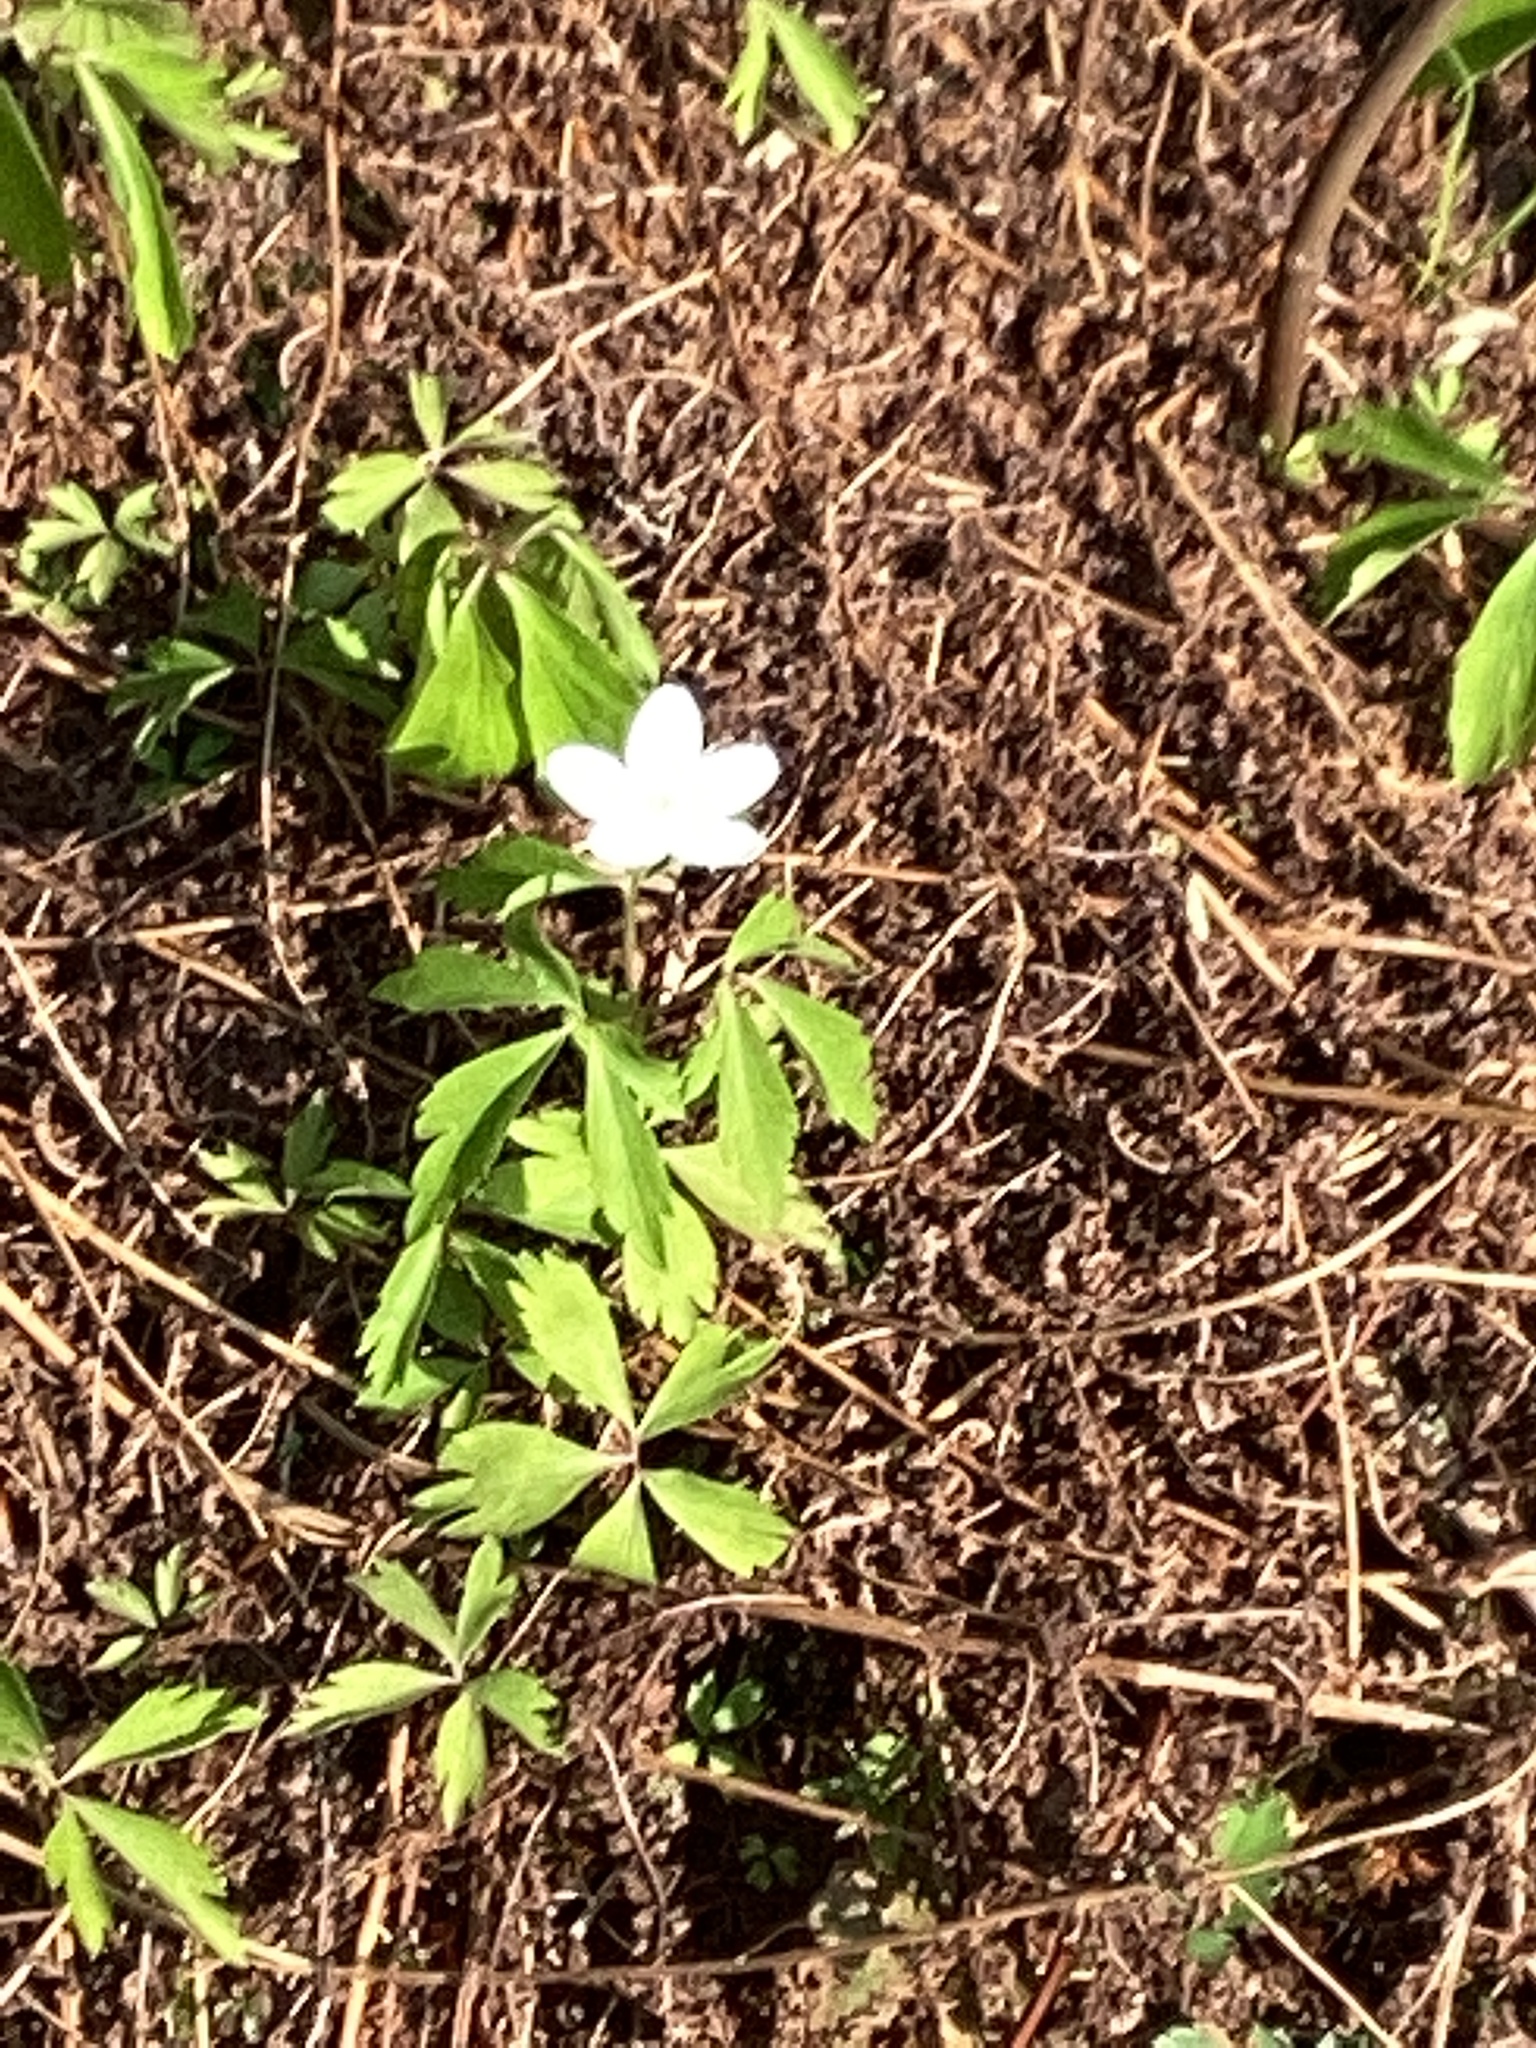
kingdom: Plantae
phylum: Tracheophyta
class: Magnoliopsida
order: Ranunculales
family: Ranunculaceae
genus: Anemone
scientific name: Anemone quinquefolia
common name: Wood anemone
